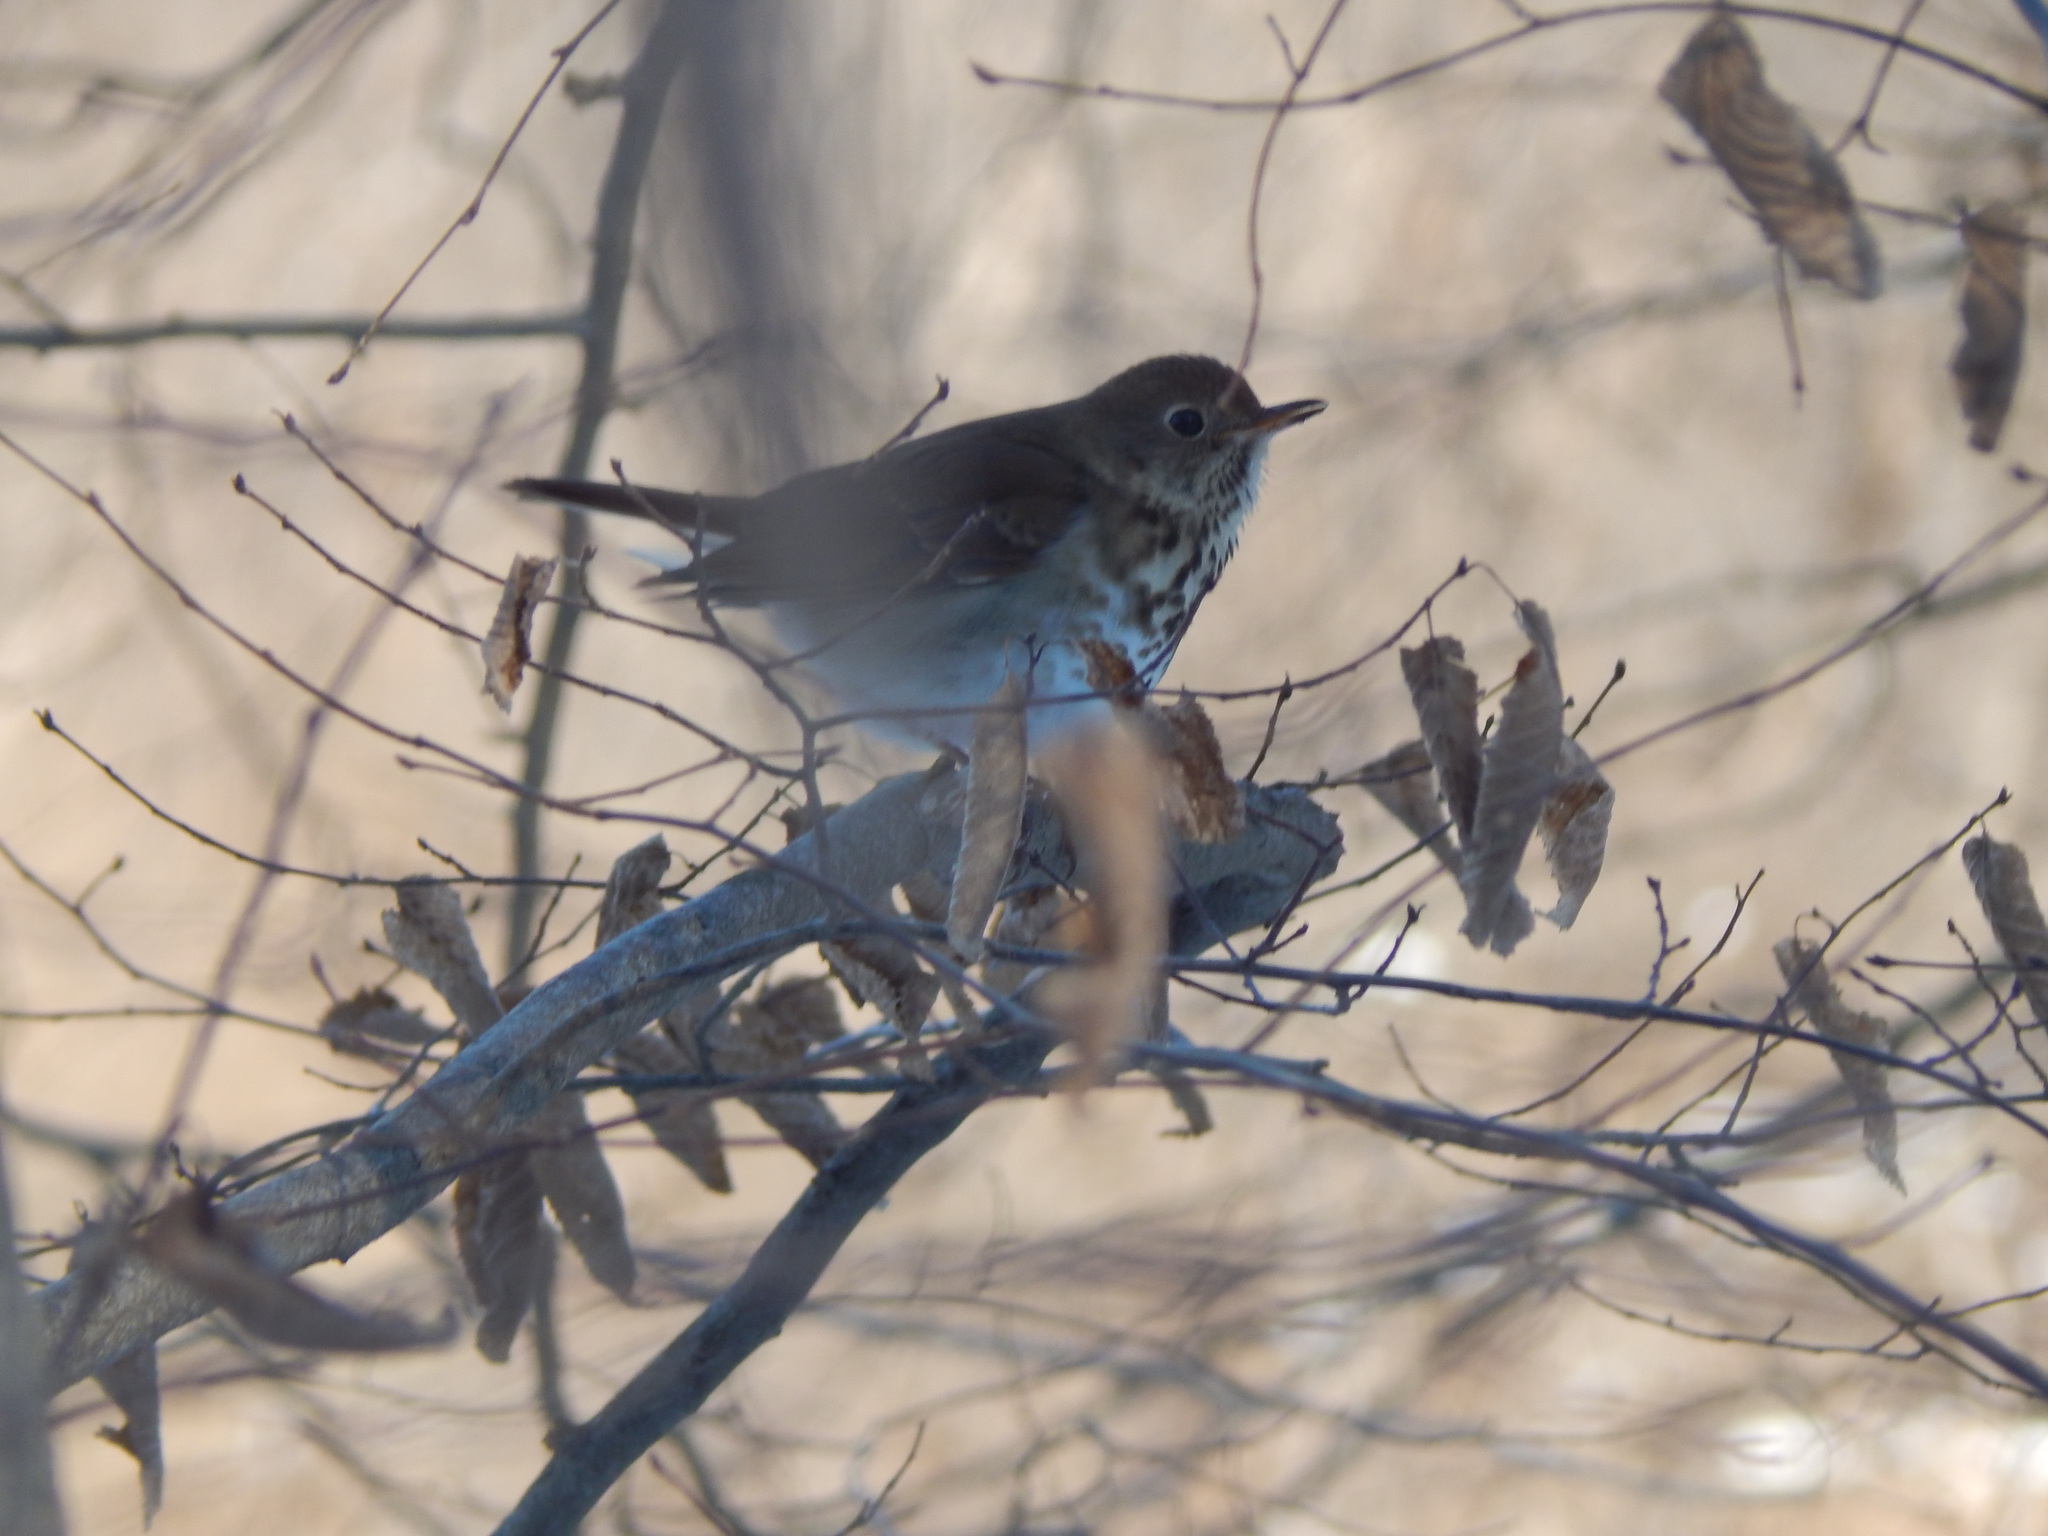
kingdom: Animalia
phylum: Chordata
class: Aves
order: Passeriformes
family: Turdidae
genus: Catharus
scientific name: Catharus guttatus
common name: Hermit thrush
